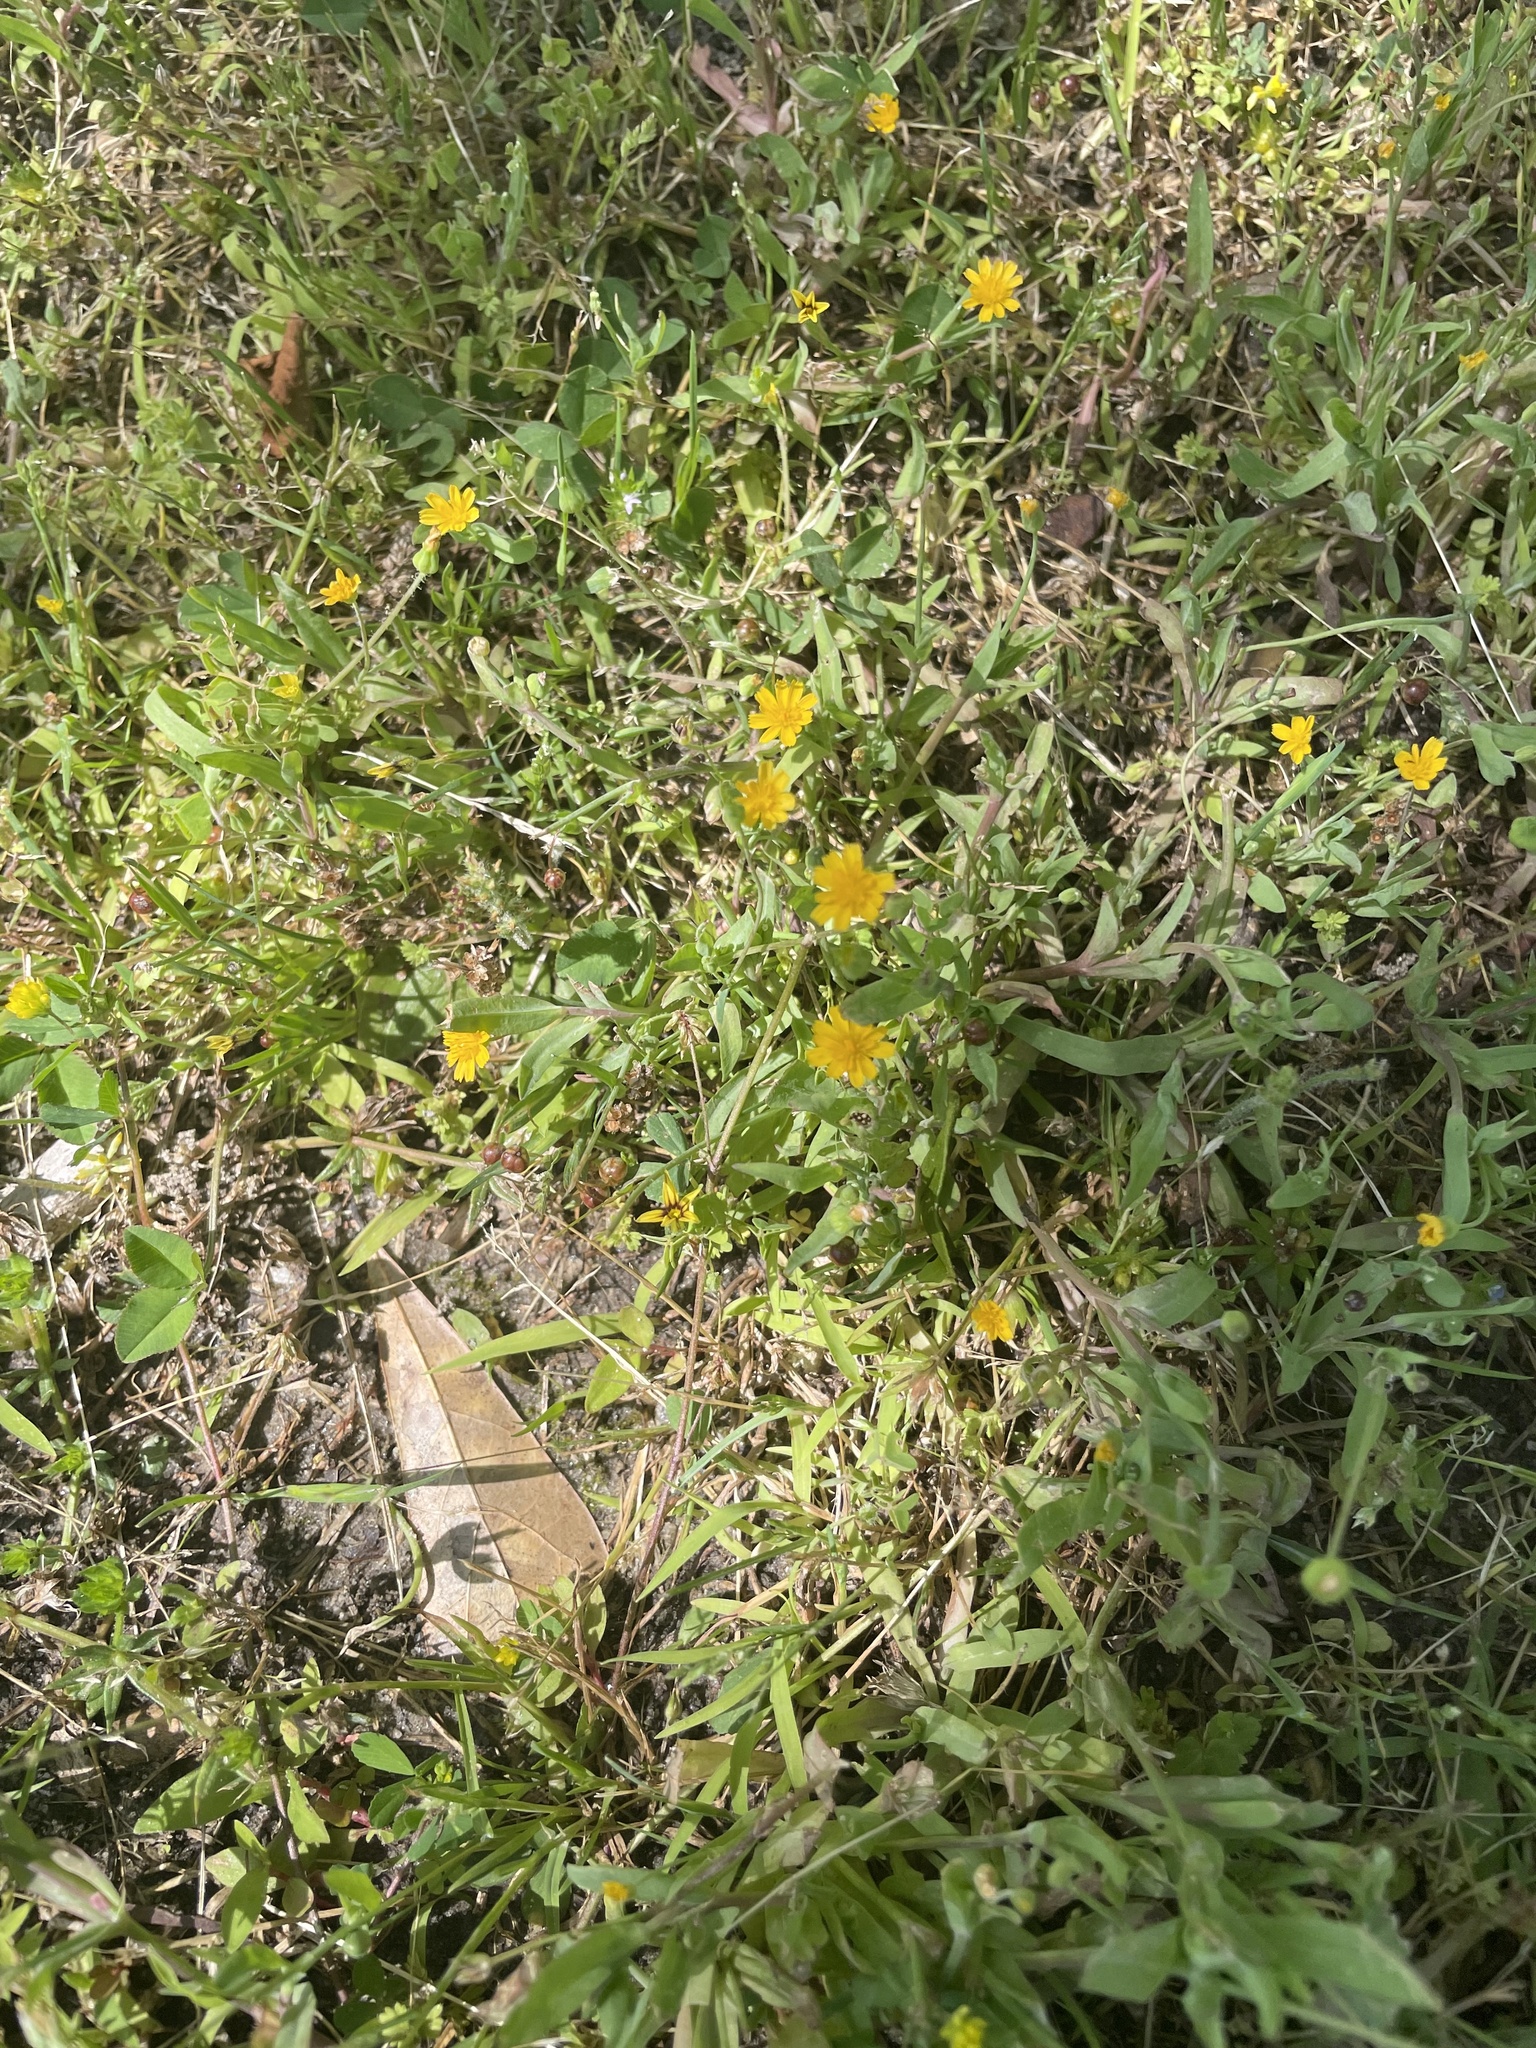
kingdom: Plantae
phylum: Tracheophyta
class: Magnoliopsida
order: Asterales
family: Asteraceae
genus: Krigia
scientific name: Krigia cespitosa
